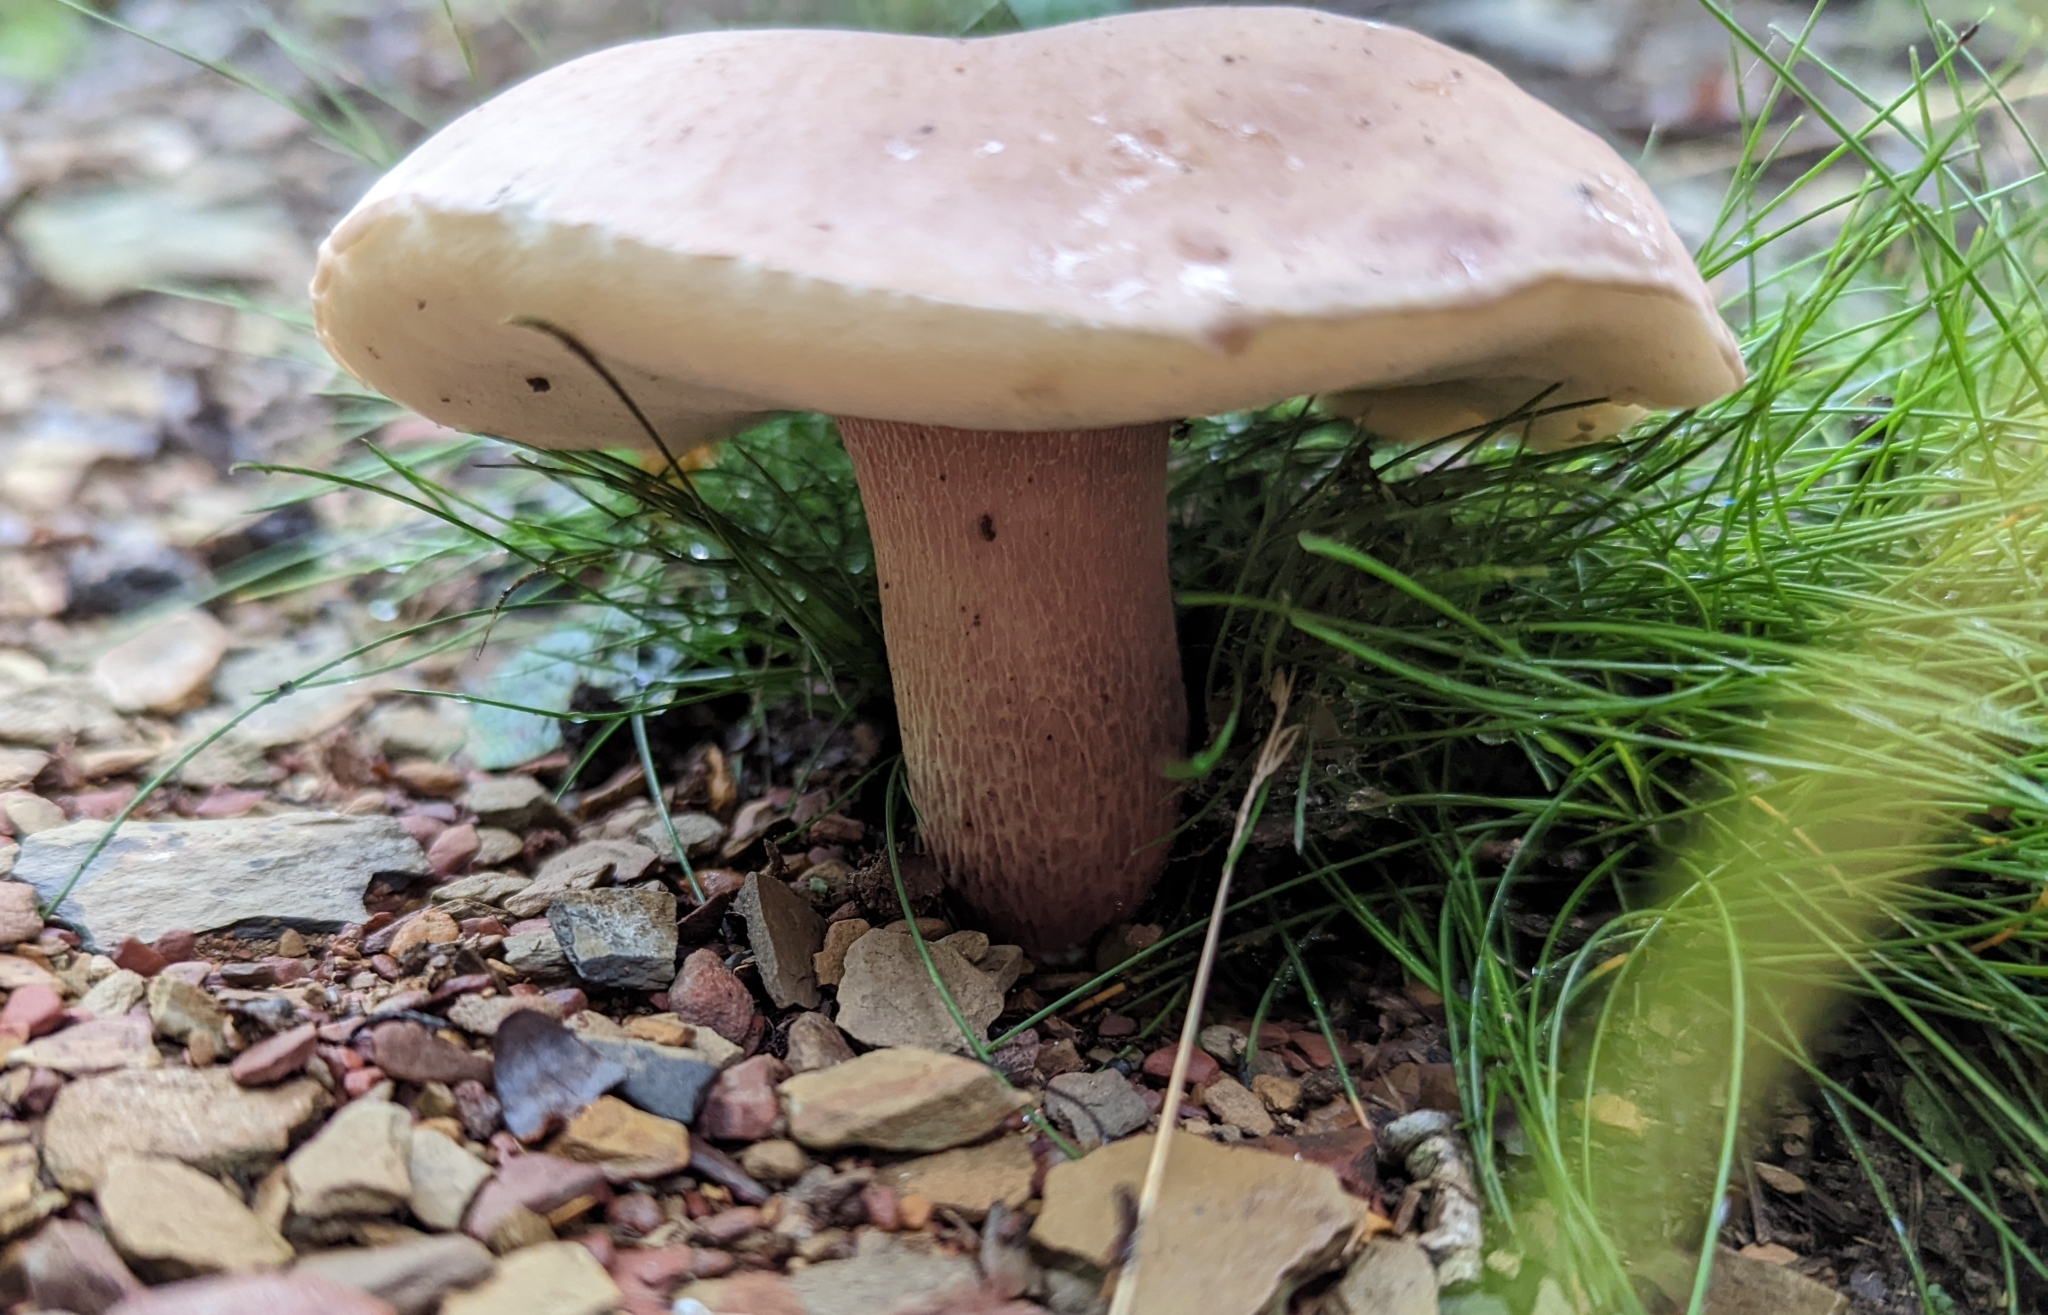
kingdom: Fungi
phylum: Basidiomycota
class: Agaricomycetes
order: Boletales
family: Boletaceae
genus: Xanthoconium
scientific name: Xanthoconium separans
